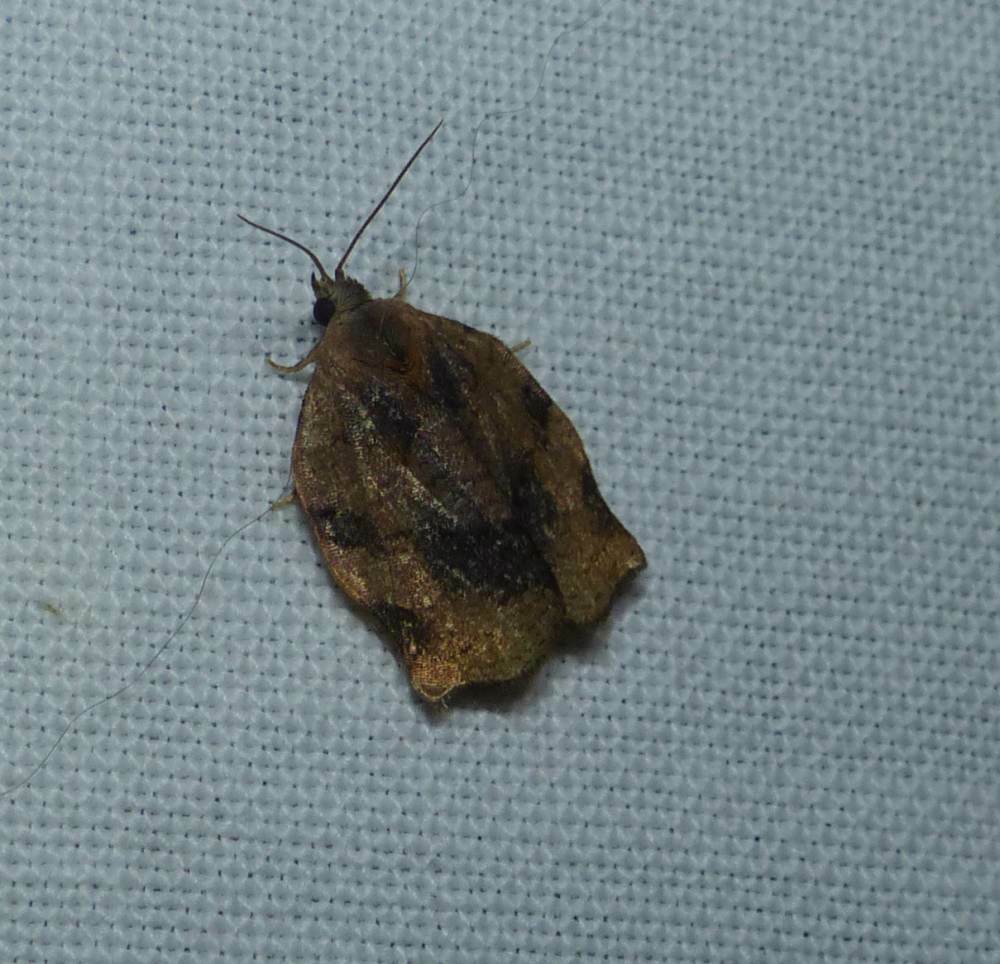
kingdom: Animalia
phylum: Arthropoda
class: Insecta
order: Lepidoptera
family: Tortricidae
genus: Archips
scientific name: Archips purpurana
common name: Omnivorous leafroller
